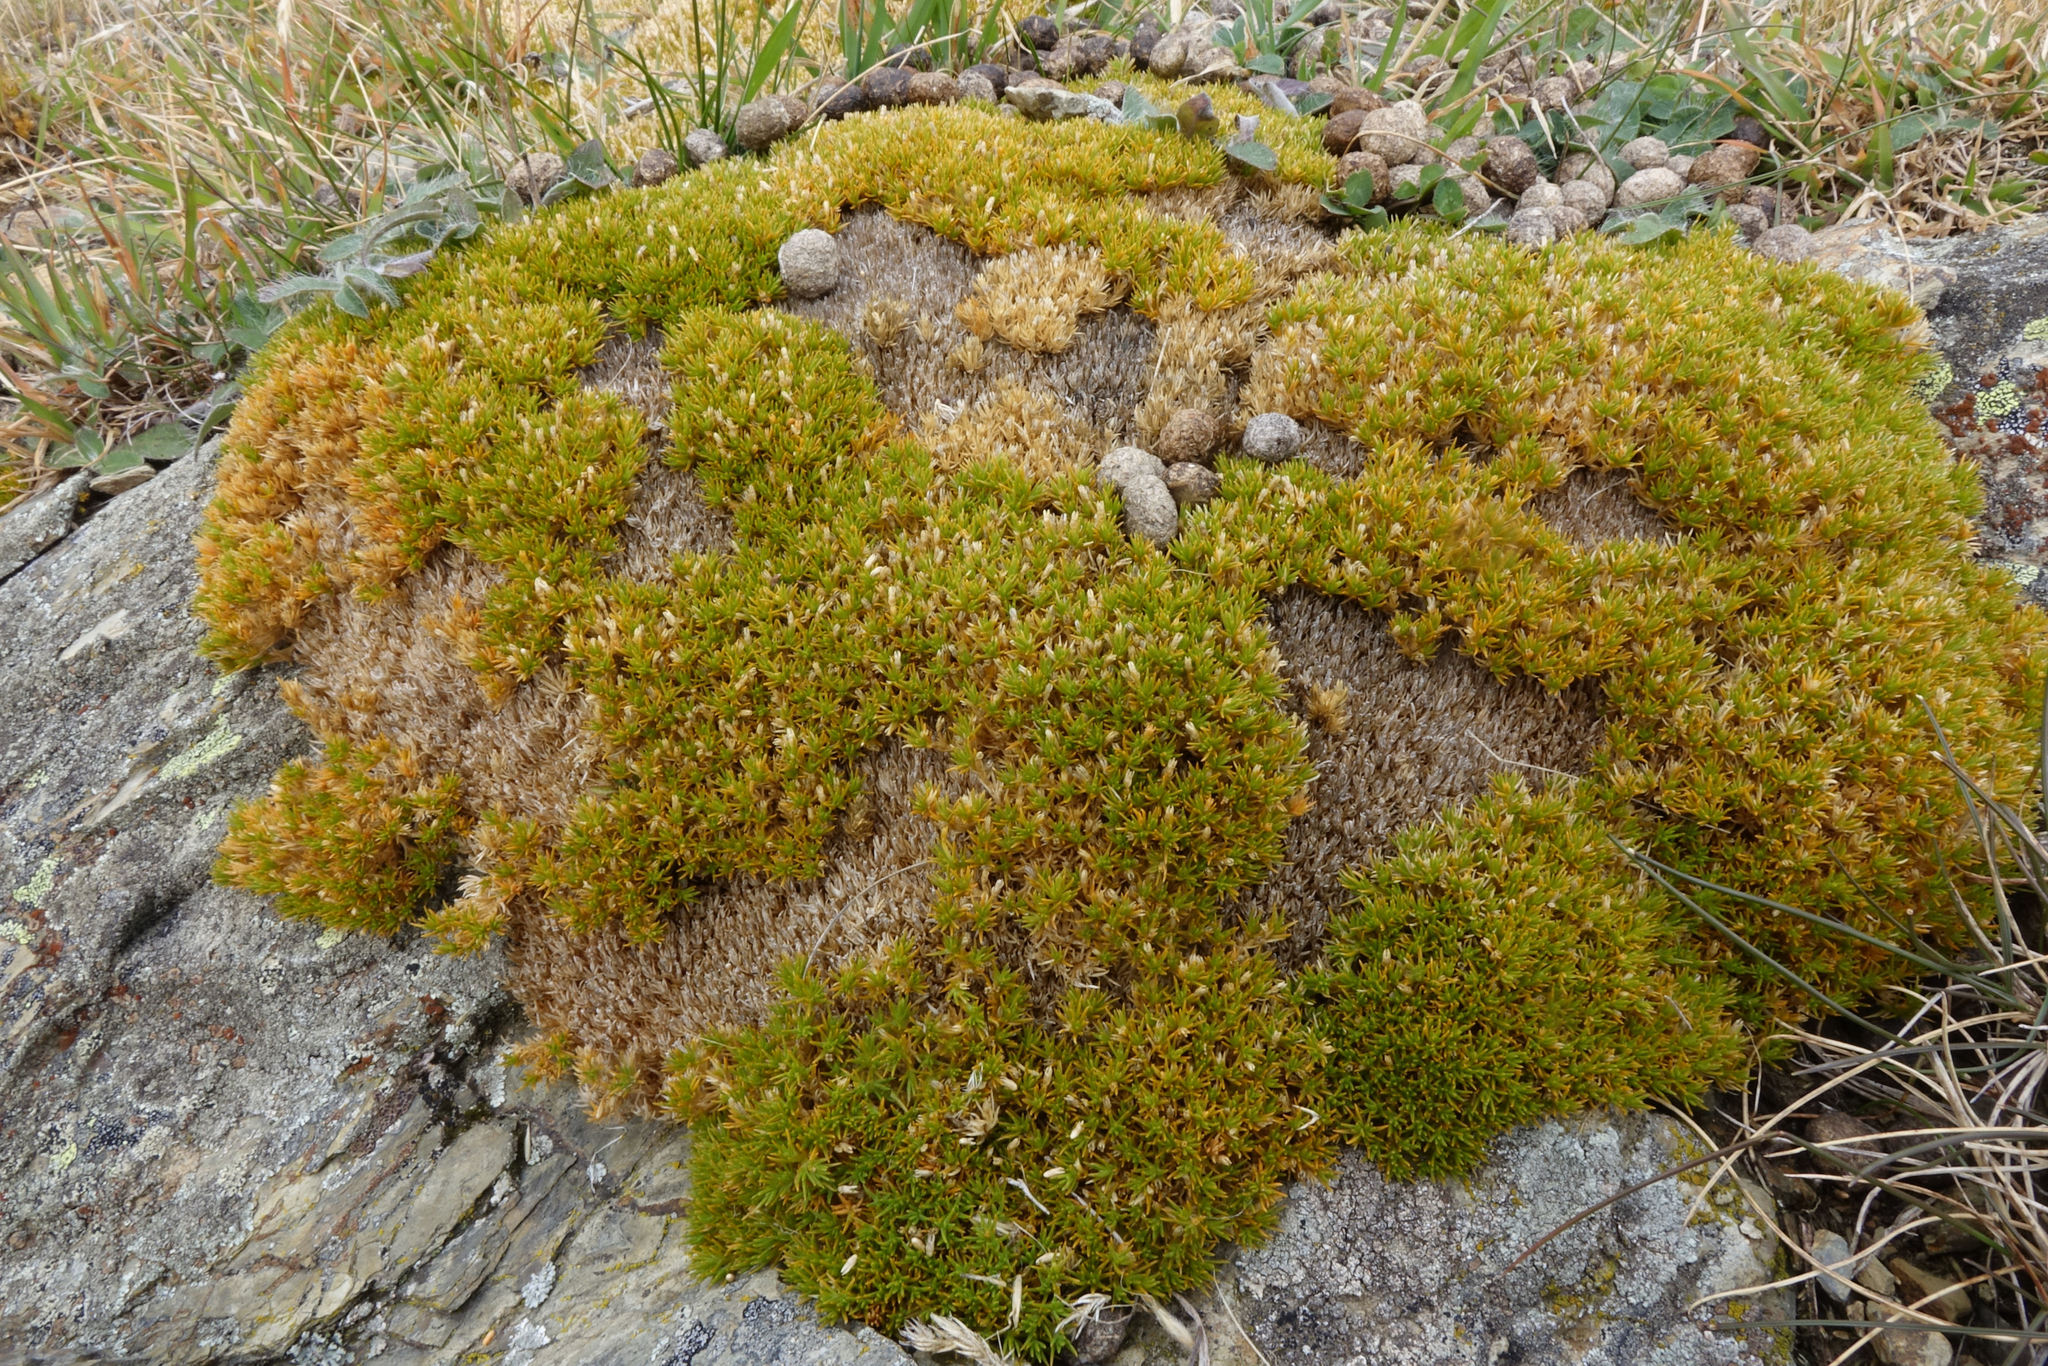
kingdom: Plantae
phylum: Tracheophyta
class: Magnoliopsida
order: Caryophyllales
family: Caryophyllaceae
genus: Scleranthus
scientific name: Scleranthus uniflorus
